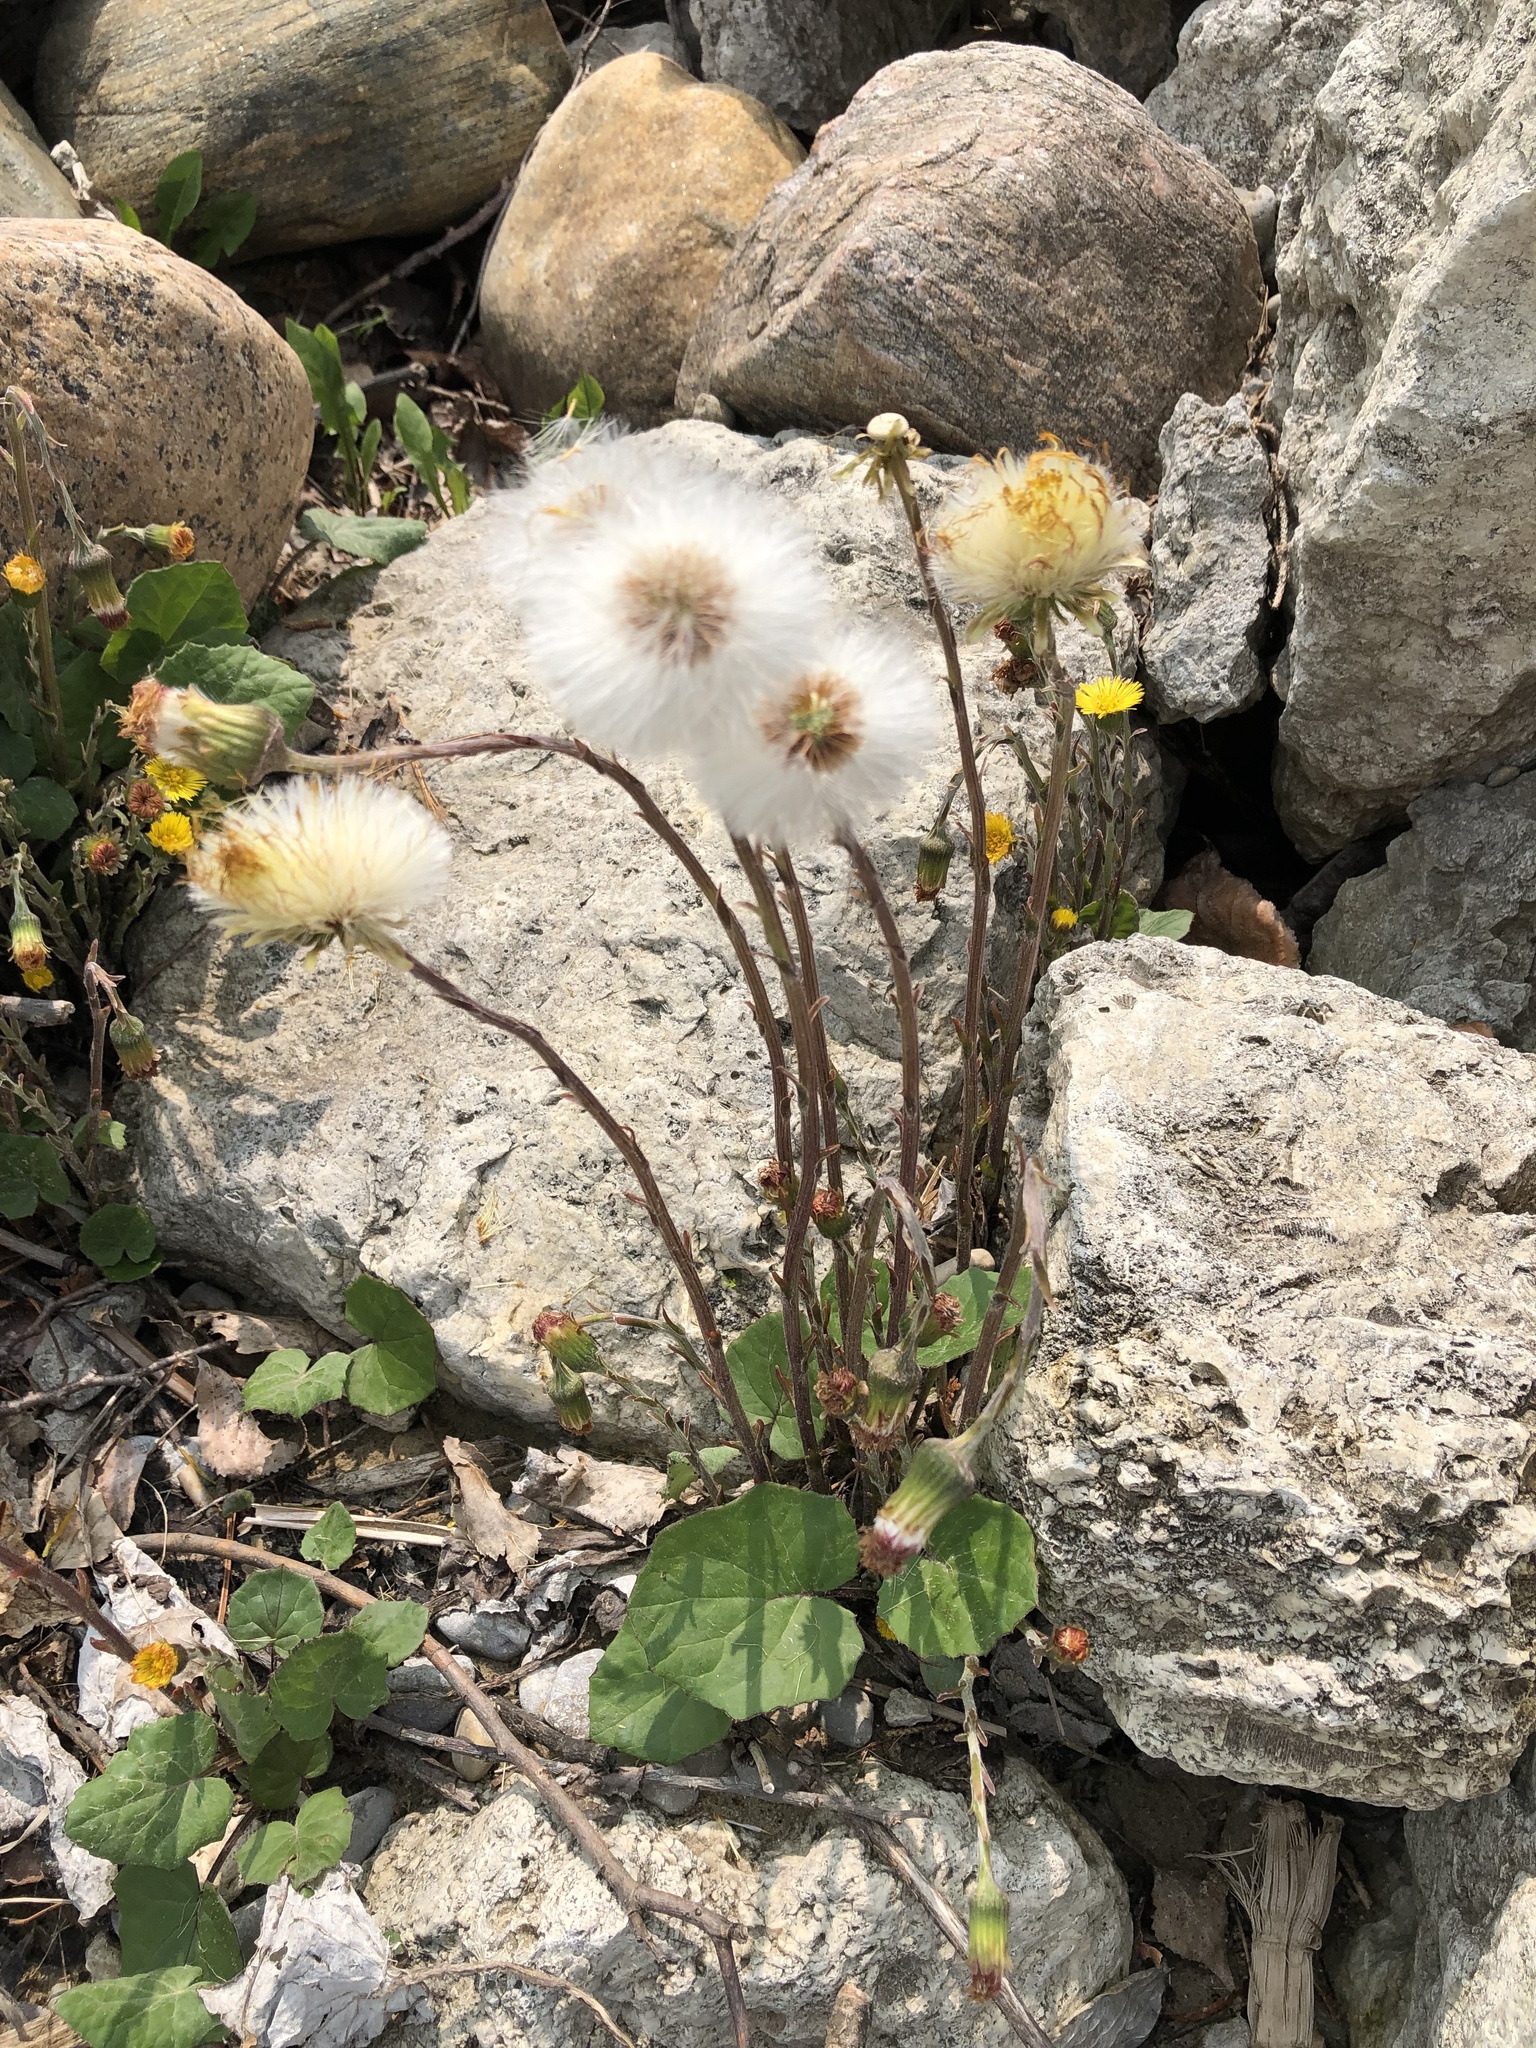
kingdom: Plantae
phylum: Tracheophyta
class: Magnoliopsida
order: Asterales
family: Asteraceae
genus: Tussilago
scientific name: Tussilago farfara
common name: Coltsfoot
